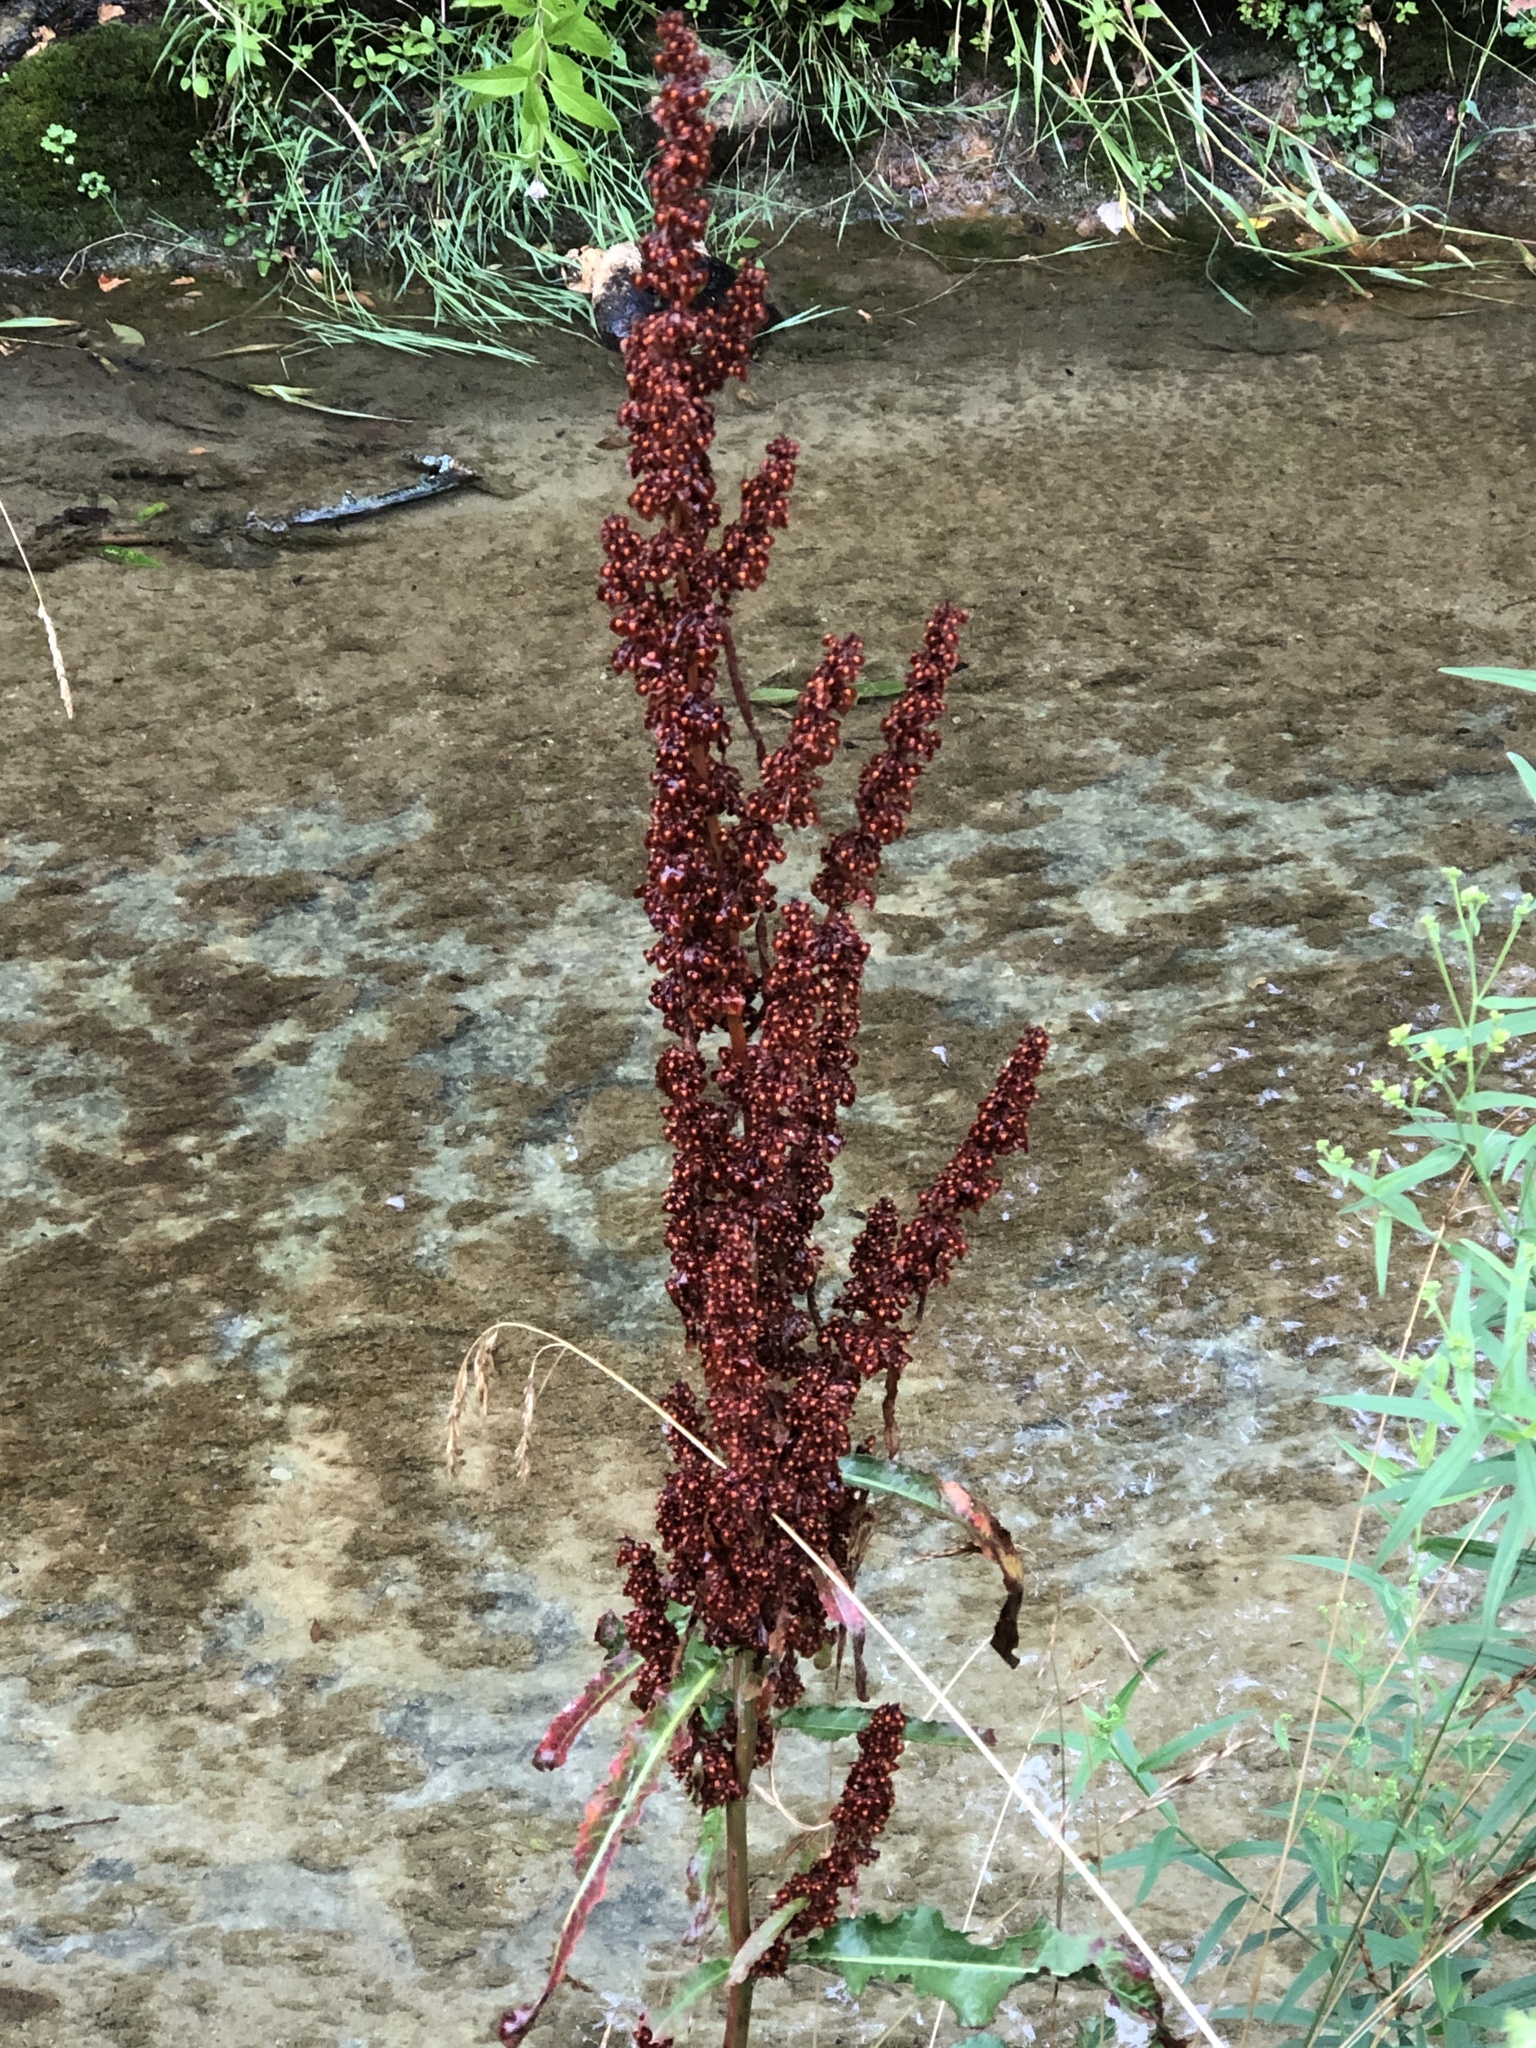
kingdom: Plantae
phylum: Tracheophyta
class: Magnoliopsida
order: Caryophyllales
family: Polygonaceae
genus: Rumex
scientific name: Rumex crispus
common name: Curled dock
